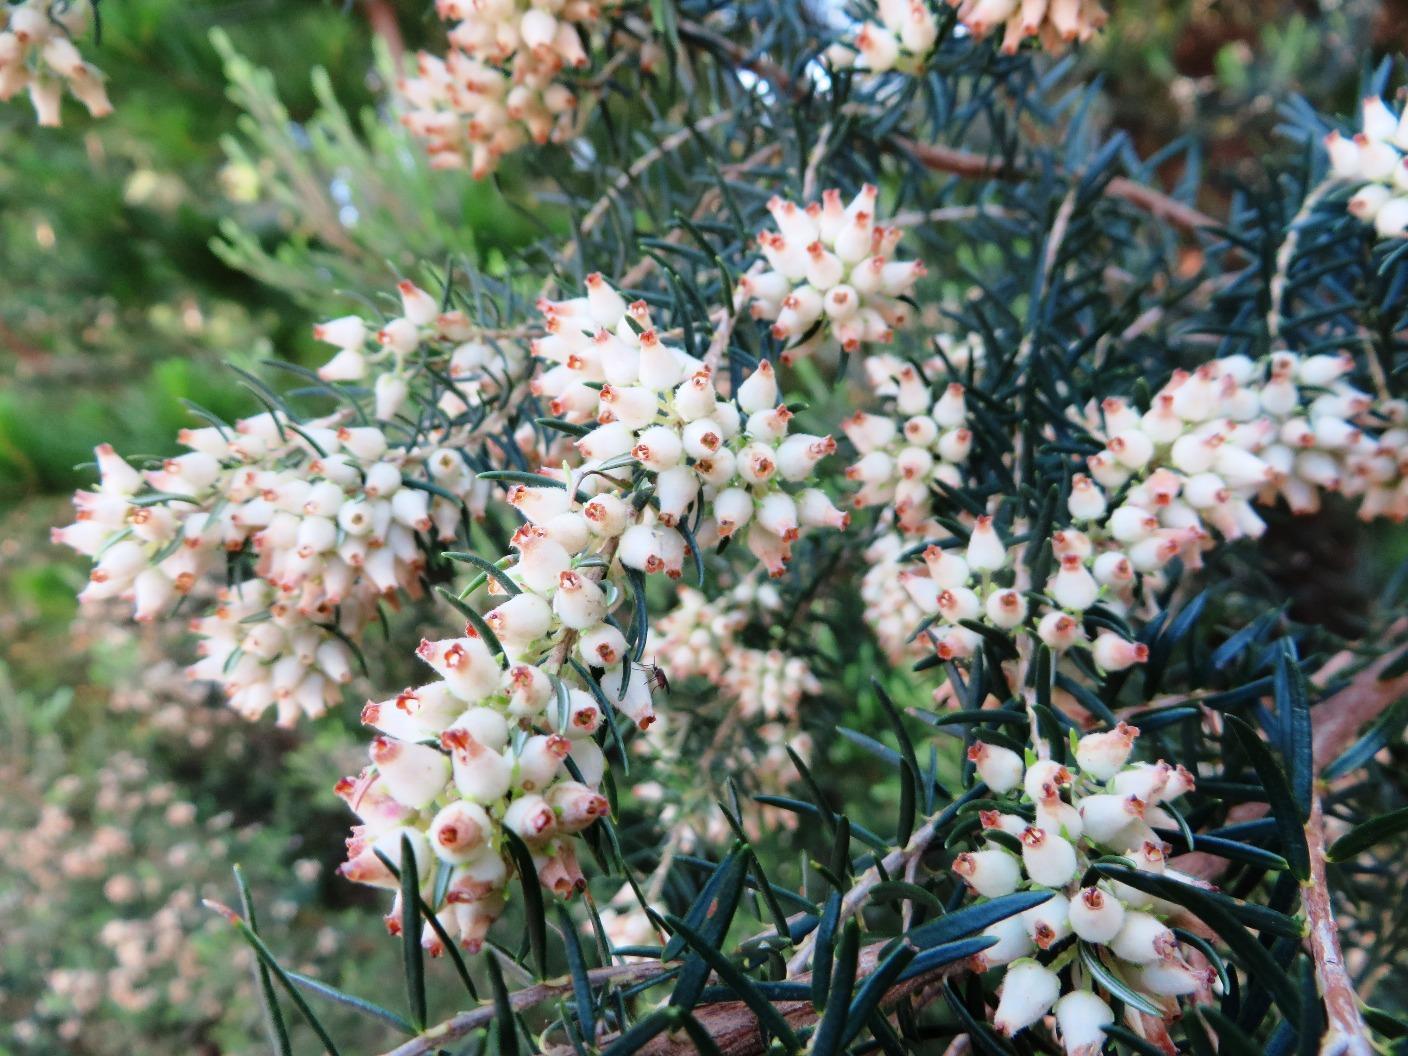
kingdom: Plantae
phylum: Tracheophyta
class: Magnoliopsida
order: Ericales
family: Ericaceae
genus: Erica
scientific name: Erica caffra
